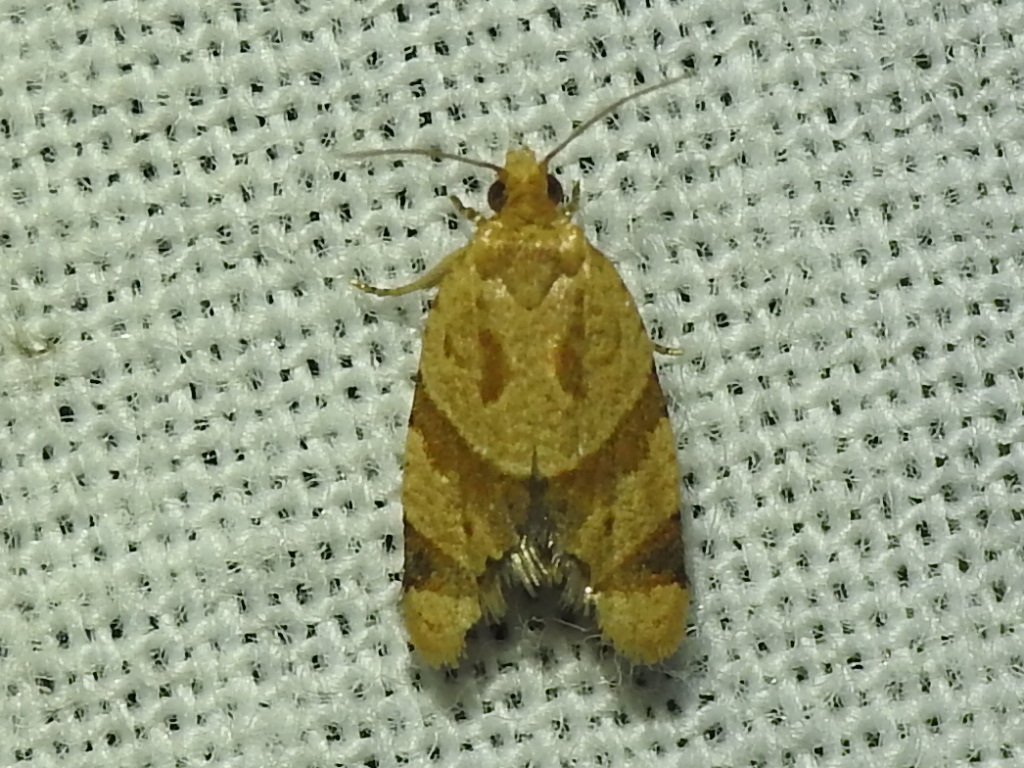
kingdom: Animalia
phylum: Arthropoda
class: Insecta
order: Lepidoptera
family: Tortricidae
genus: Clepsis
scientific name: Clepsis peritana
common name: Garden tortrix
